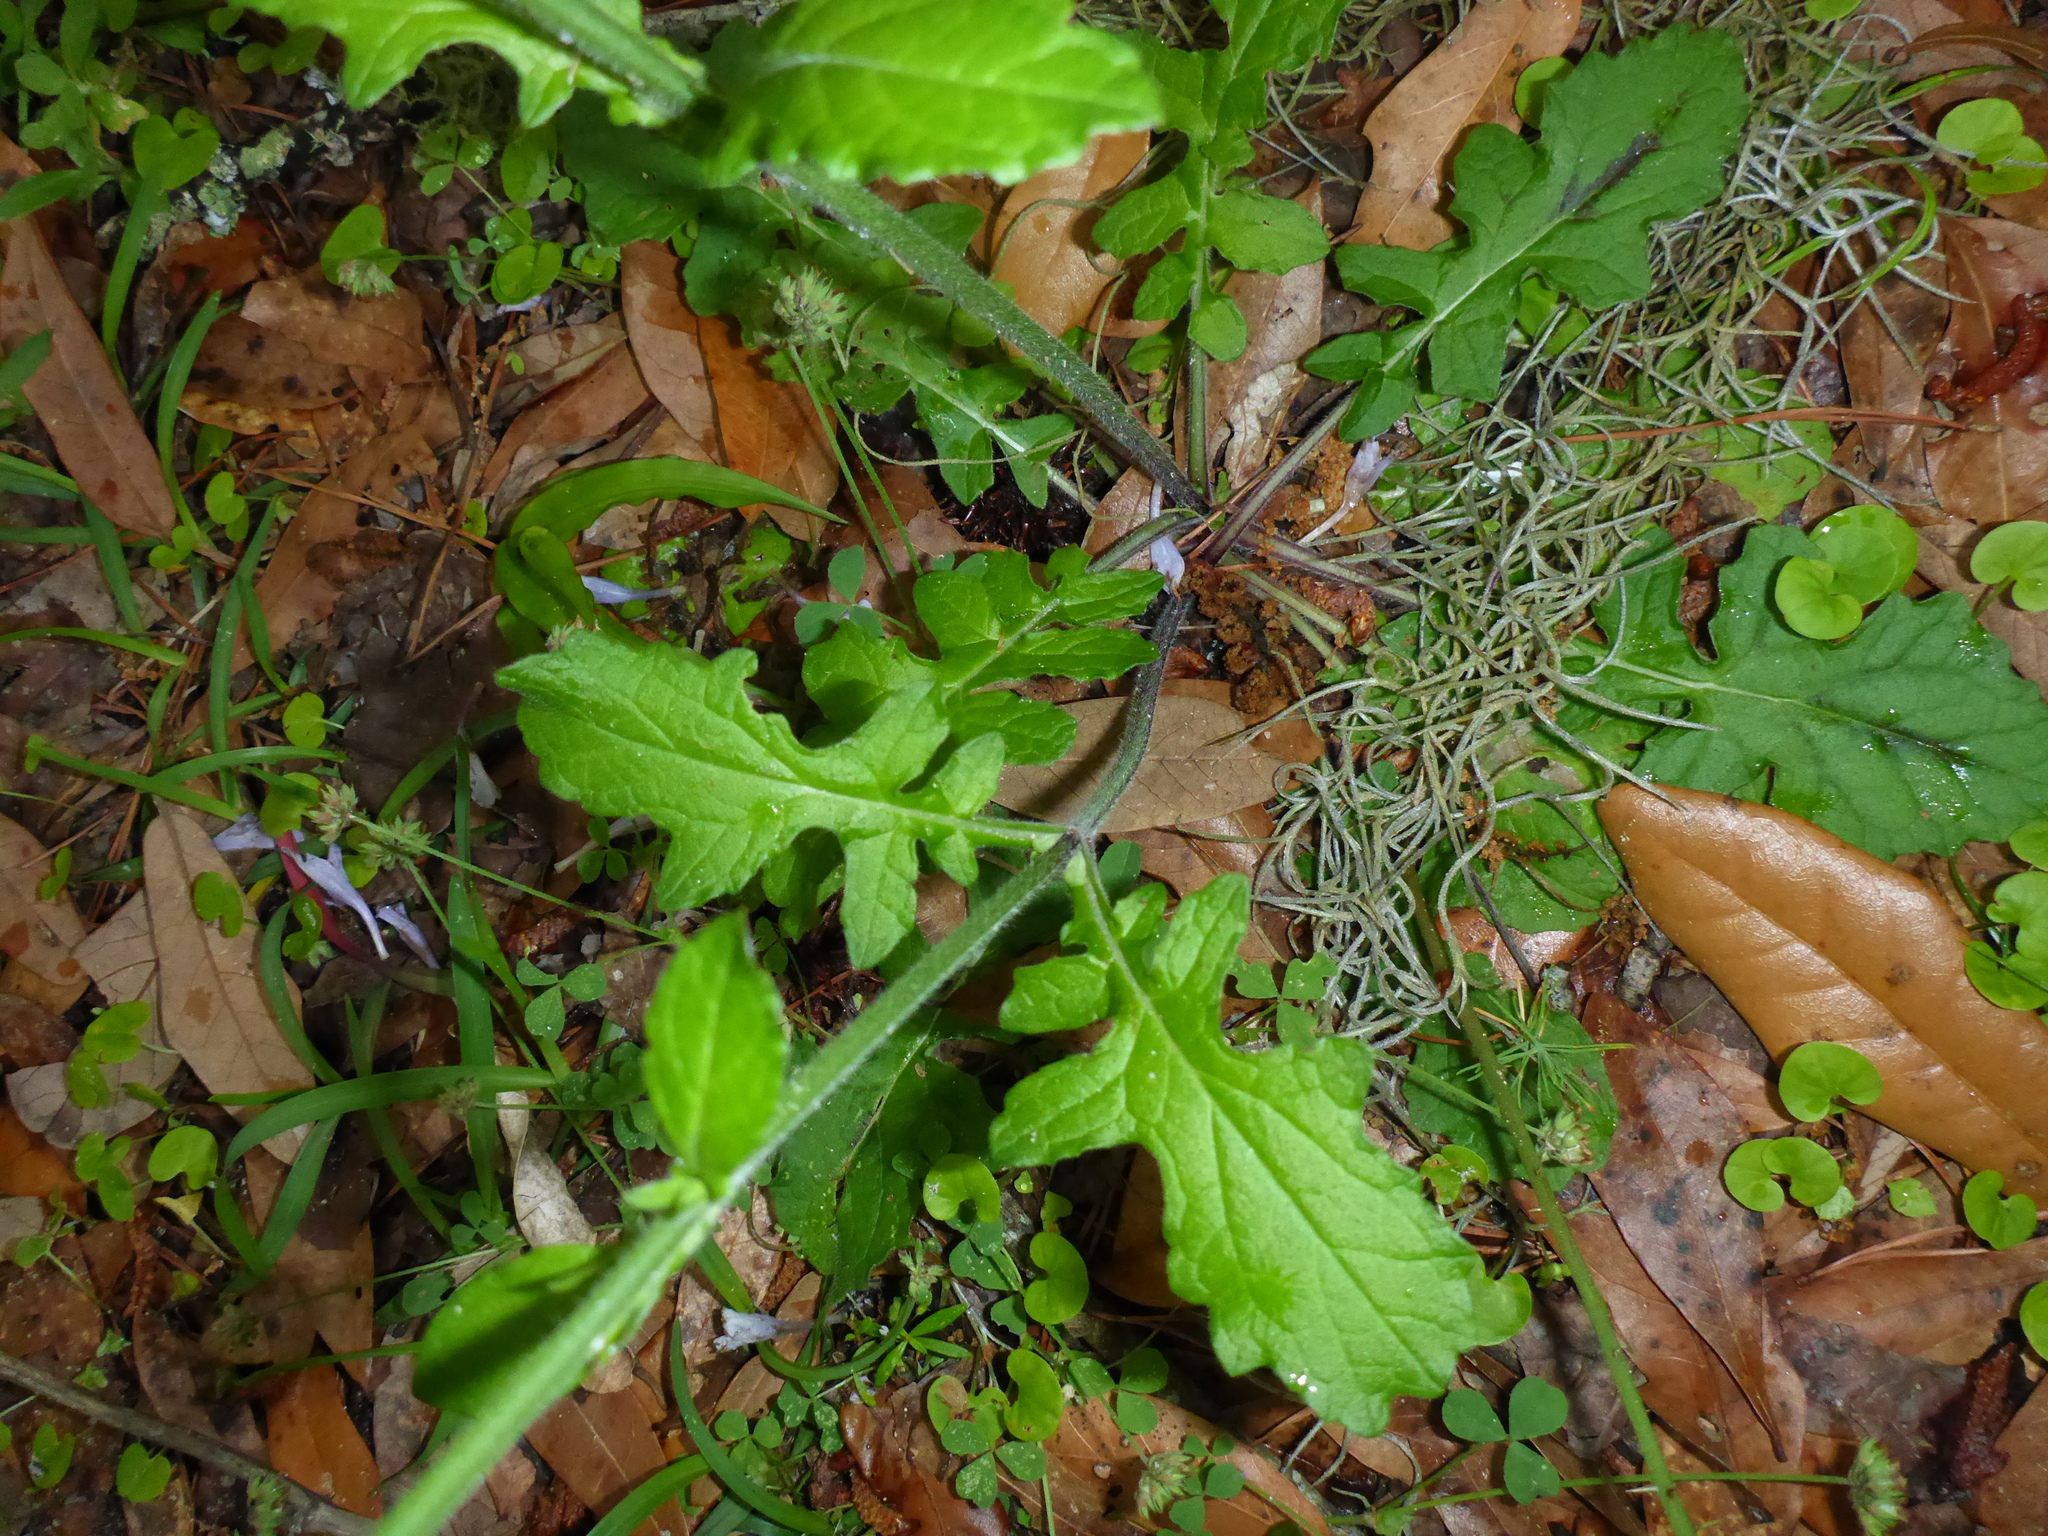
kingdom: Plantae
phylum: Tracheophyta
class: Magnoliopsida
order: Lamiales
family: Lamiaceae
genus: Salvia
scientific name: Salvia lyrata
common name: Cancerweed
